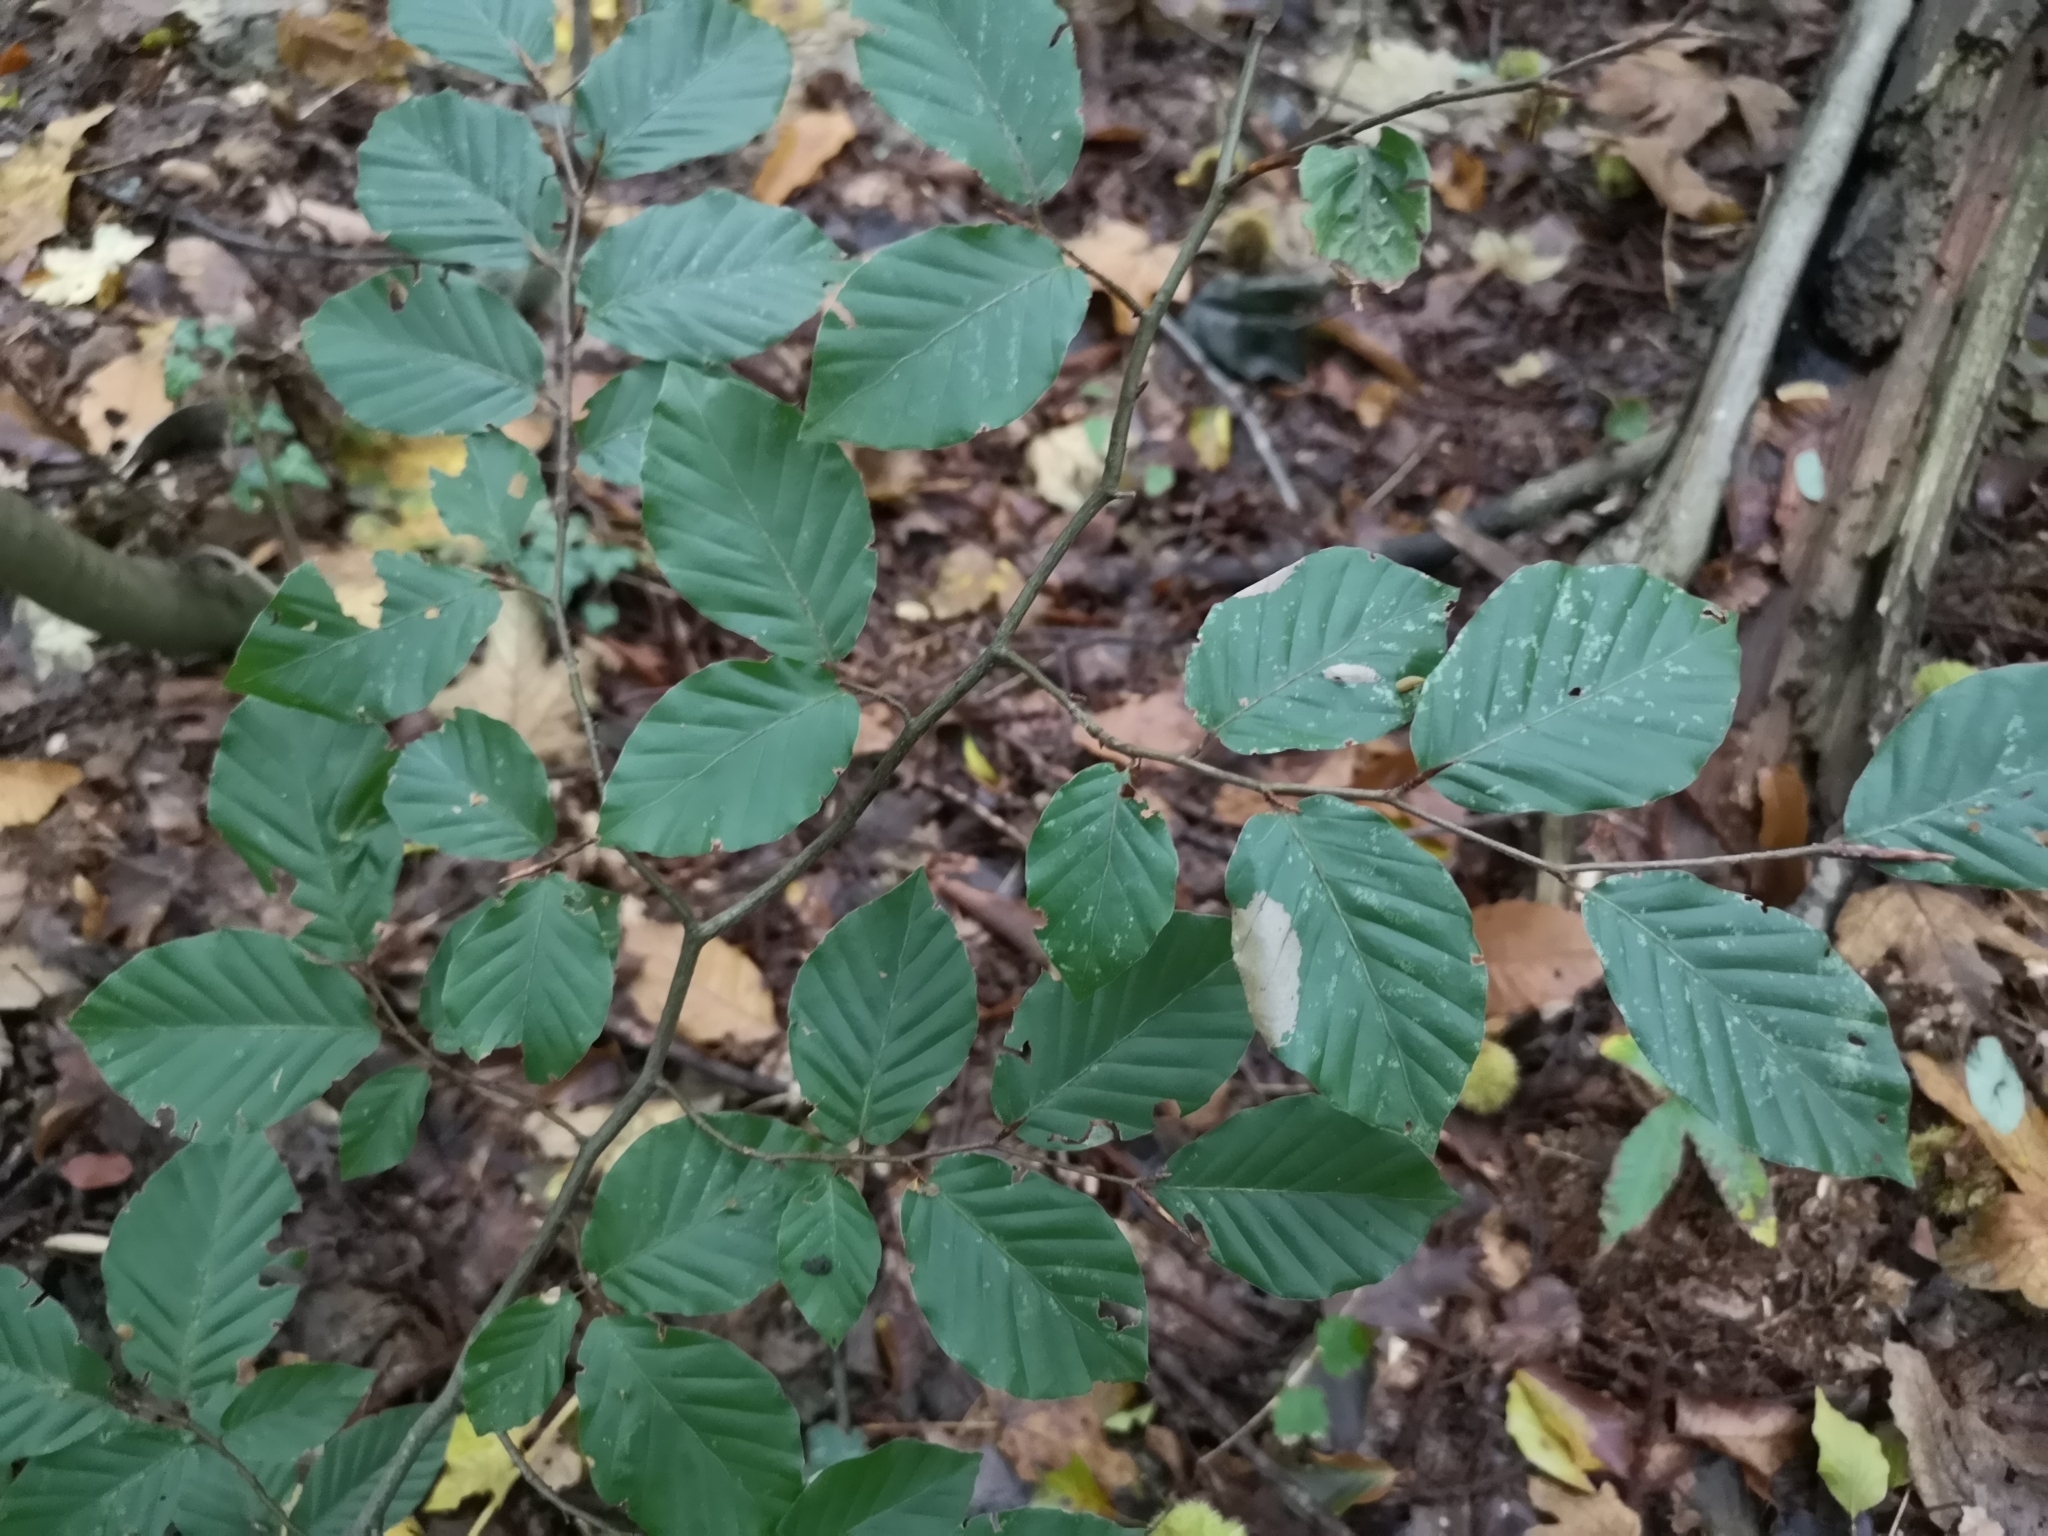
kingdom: Plantae
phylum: Tracheophyta
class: Magnoliopsida
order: Fagales
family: Fagaceae
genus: Fagus
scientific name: Fagus sylvatica
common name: Beech
